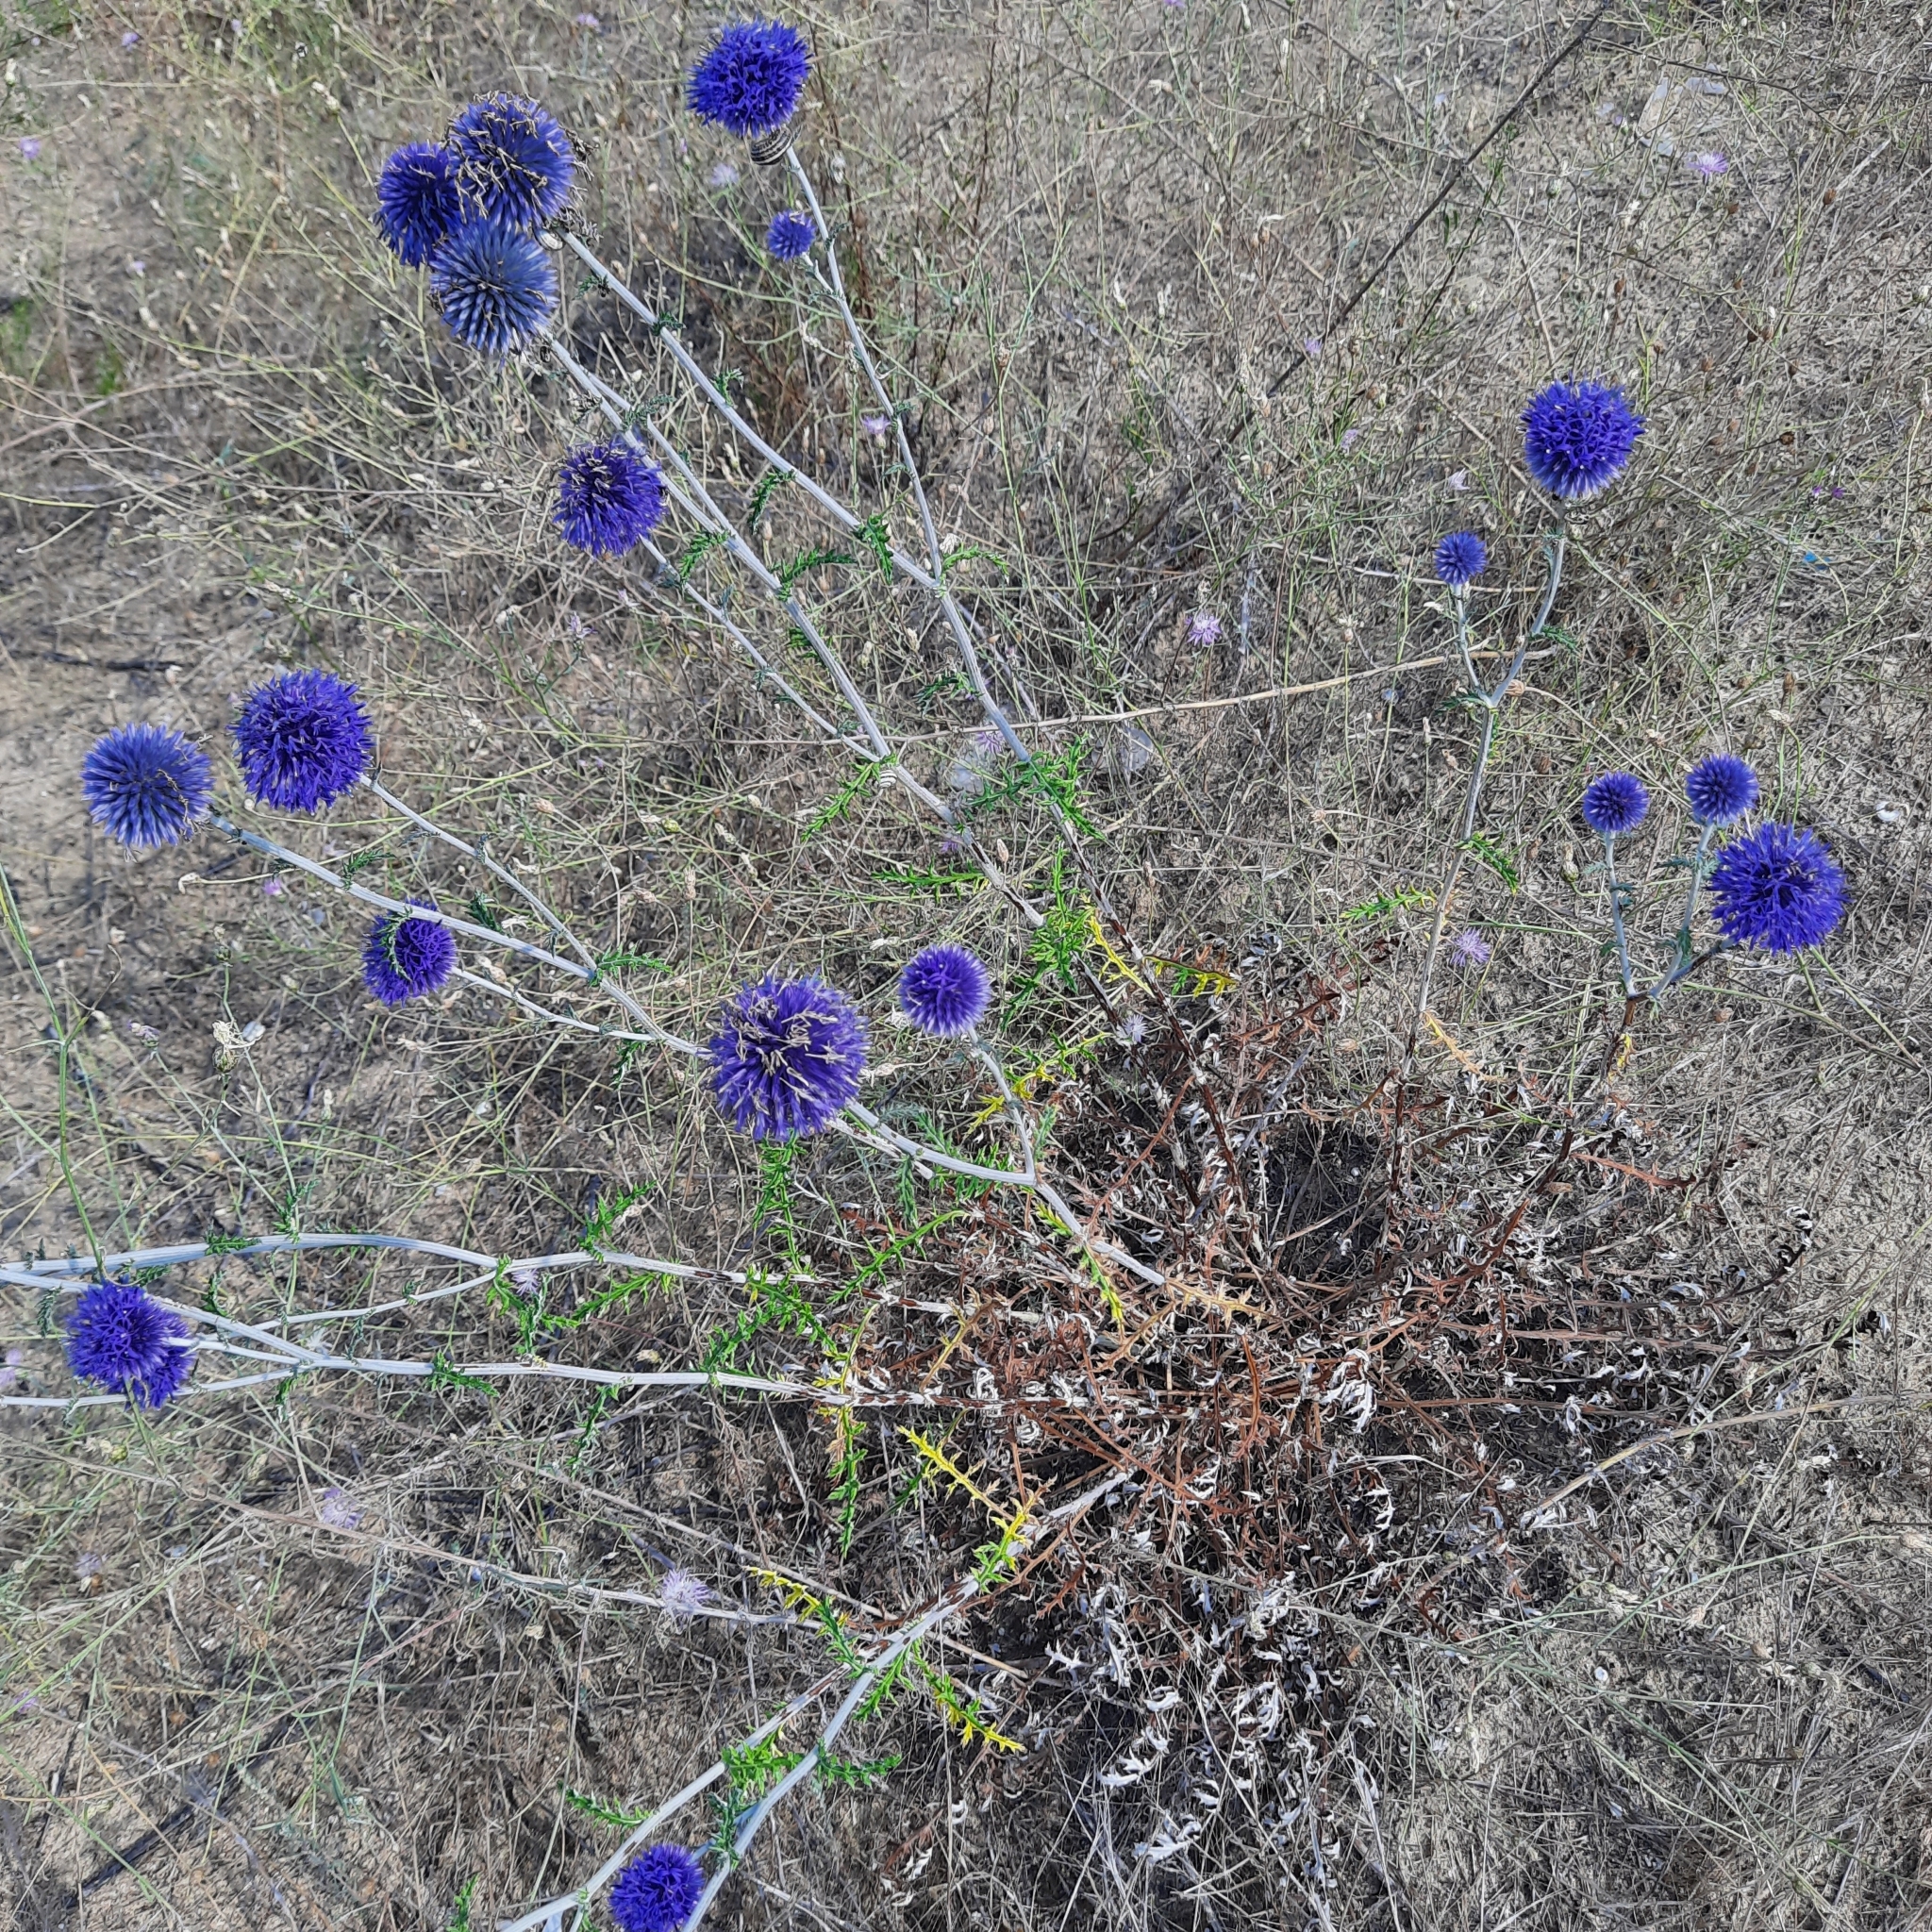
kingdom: Plantae
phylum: Tracheophyta
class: Magnoliopsida
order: Asterales
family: Asteraceae
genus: Echinops
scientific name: Echinops ritro
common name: Globe thistle
